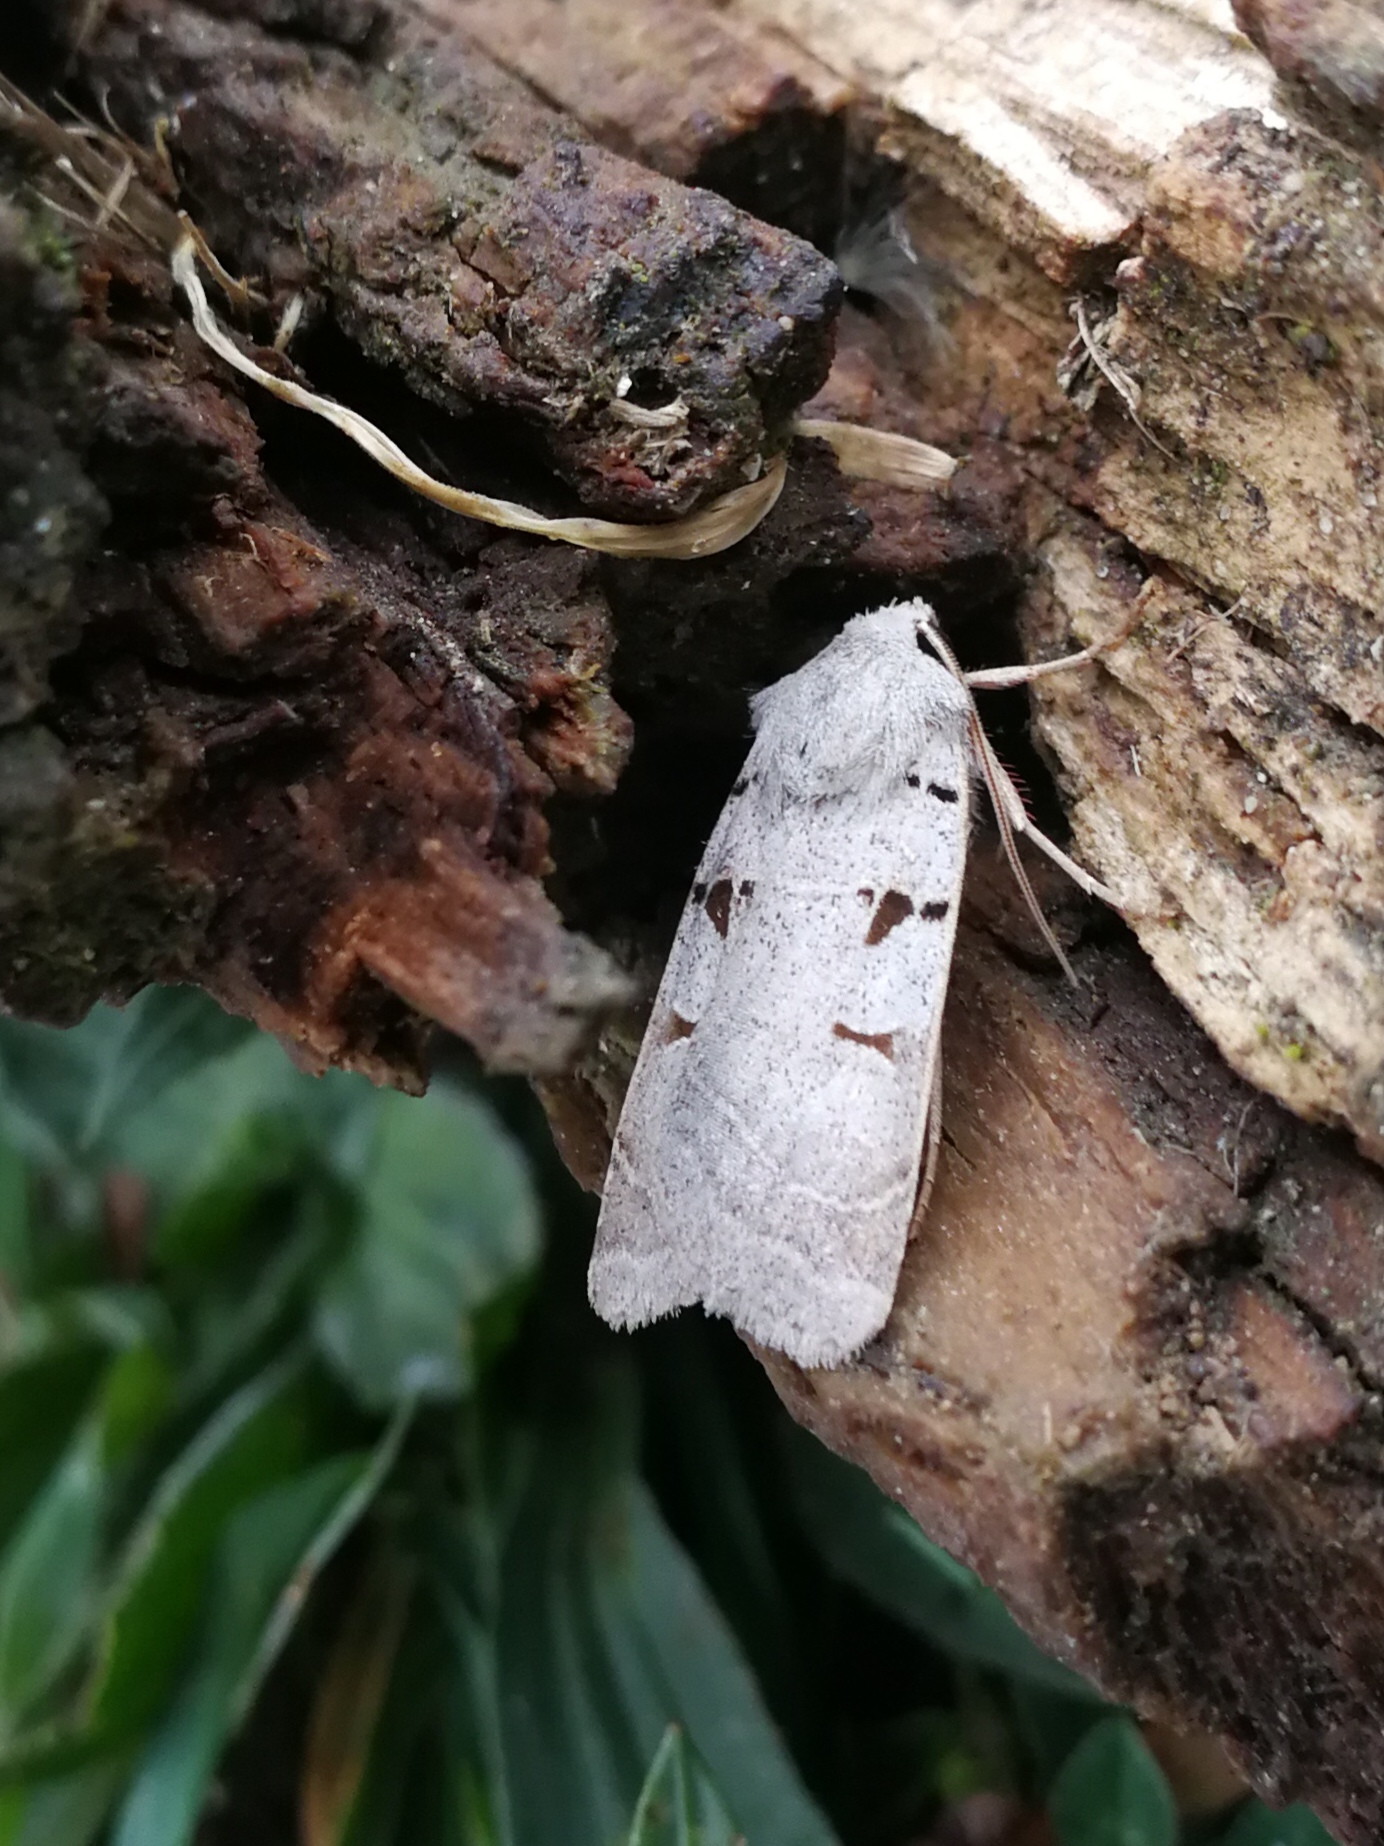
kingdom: Animalia
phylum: Arthropoda
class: Insecta
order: Lepidoptera
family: Noctuidae
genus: Eugnorisma
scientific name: Eugnorisma glareosa
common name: Autumnal rustic
